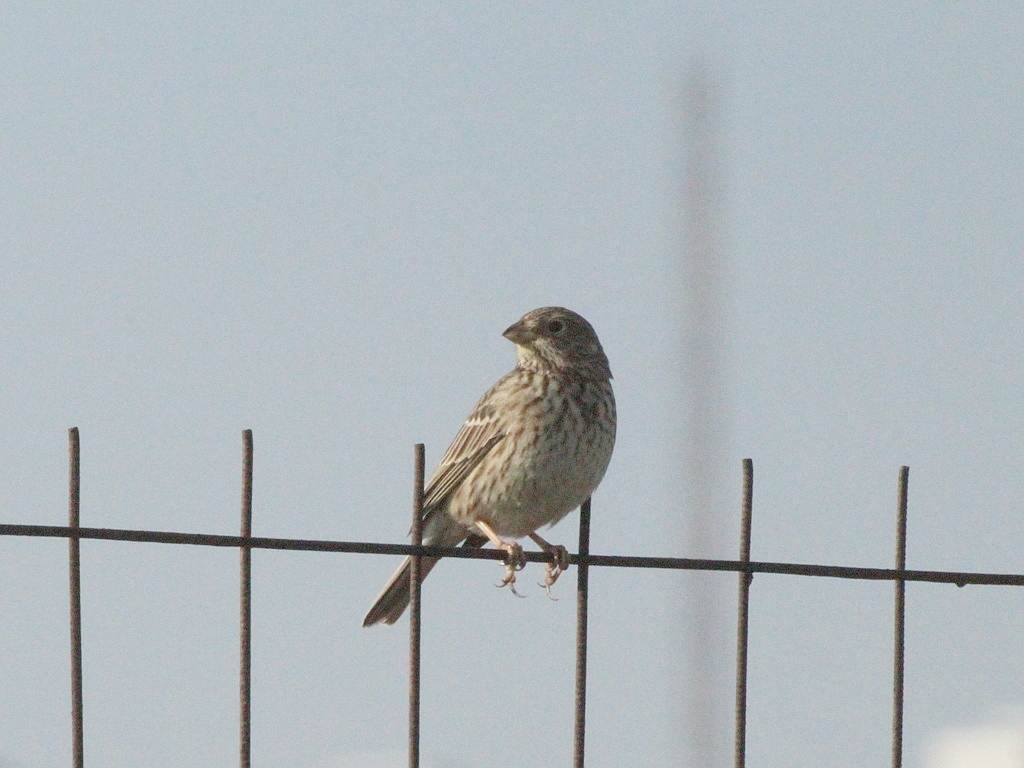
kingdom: Animalia
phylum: Chordata
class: Aves
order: Passeriformes
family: Emberizidae
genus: Emberiza
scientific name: Emberiza calandra
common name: Corn bunting
